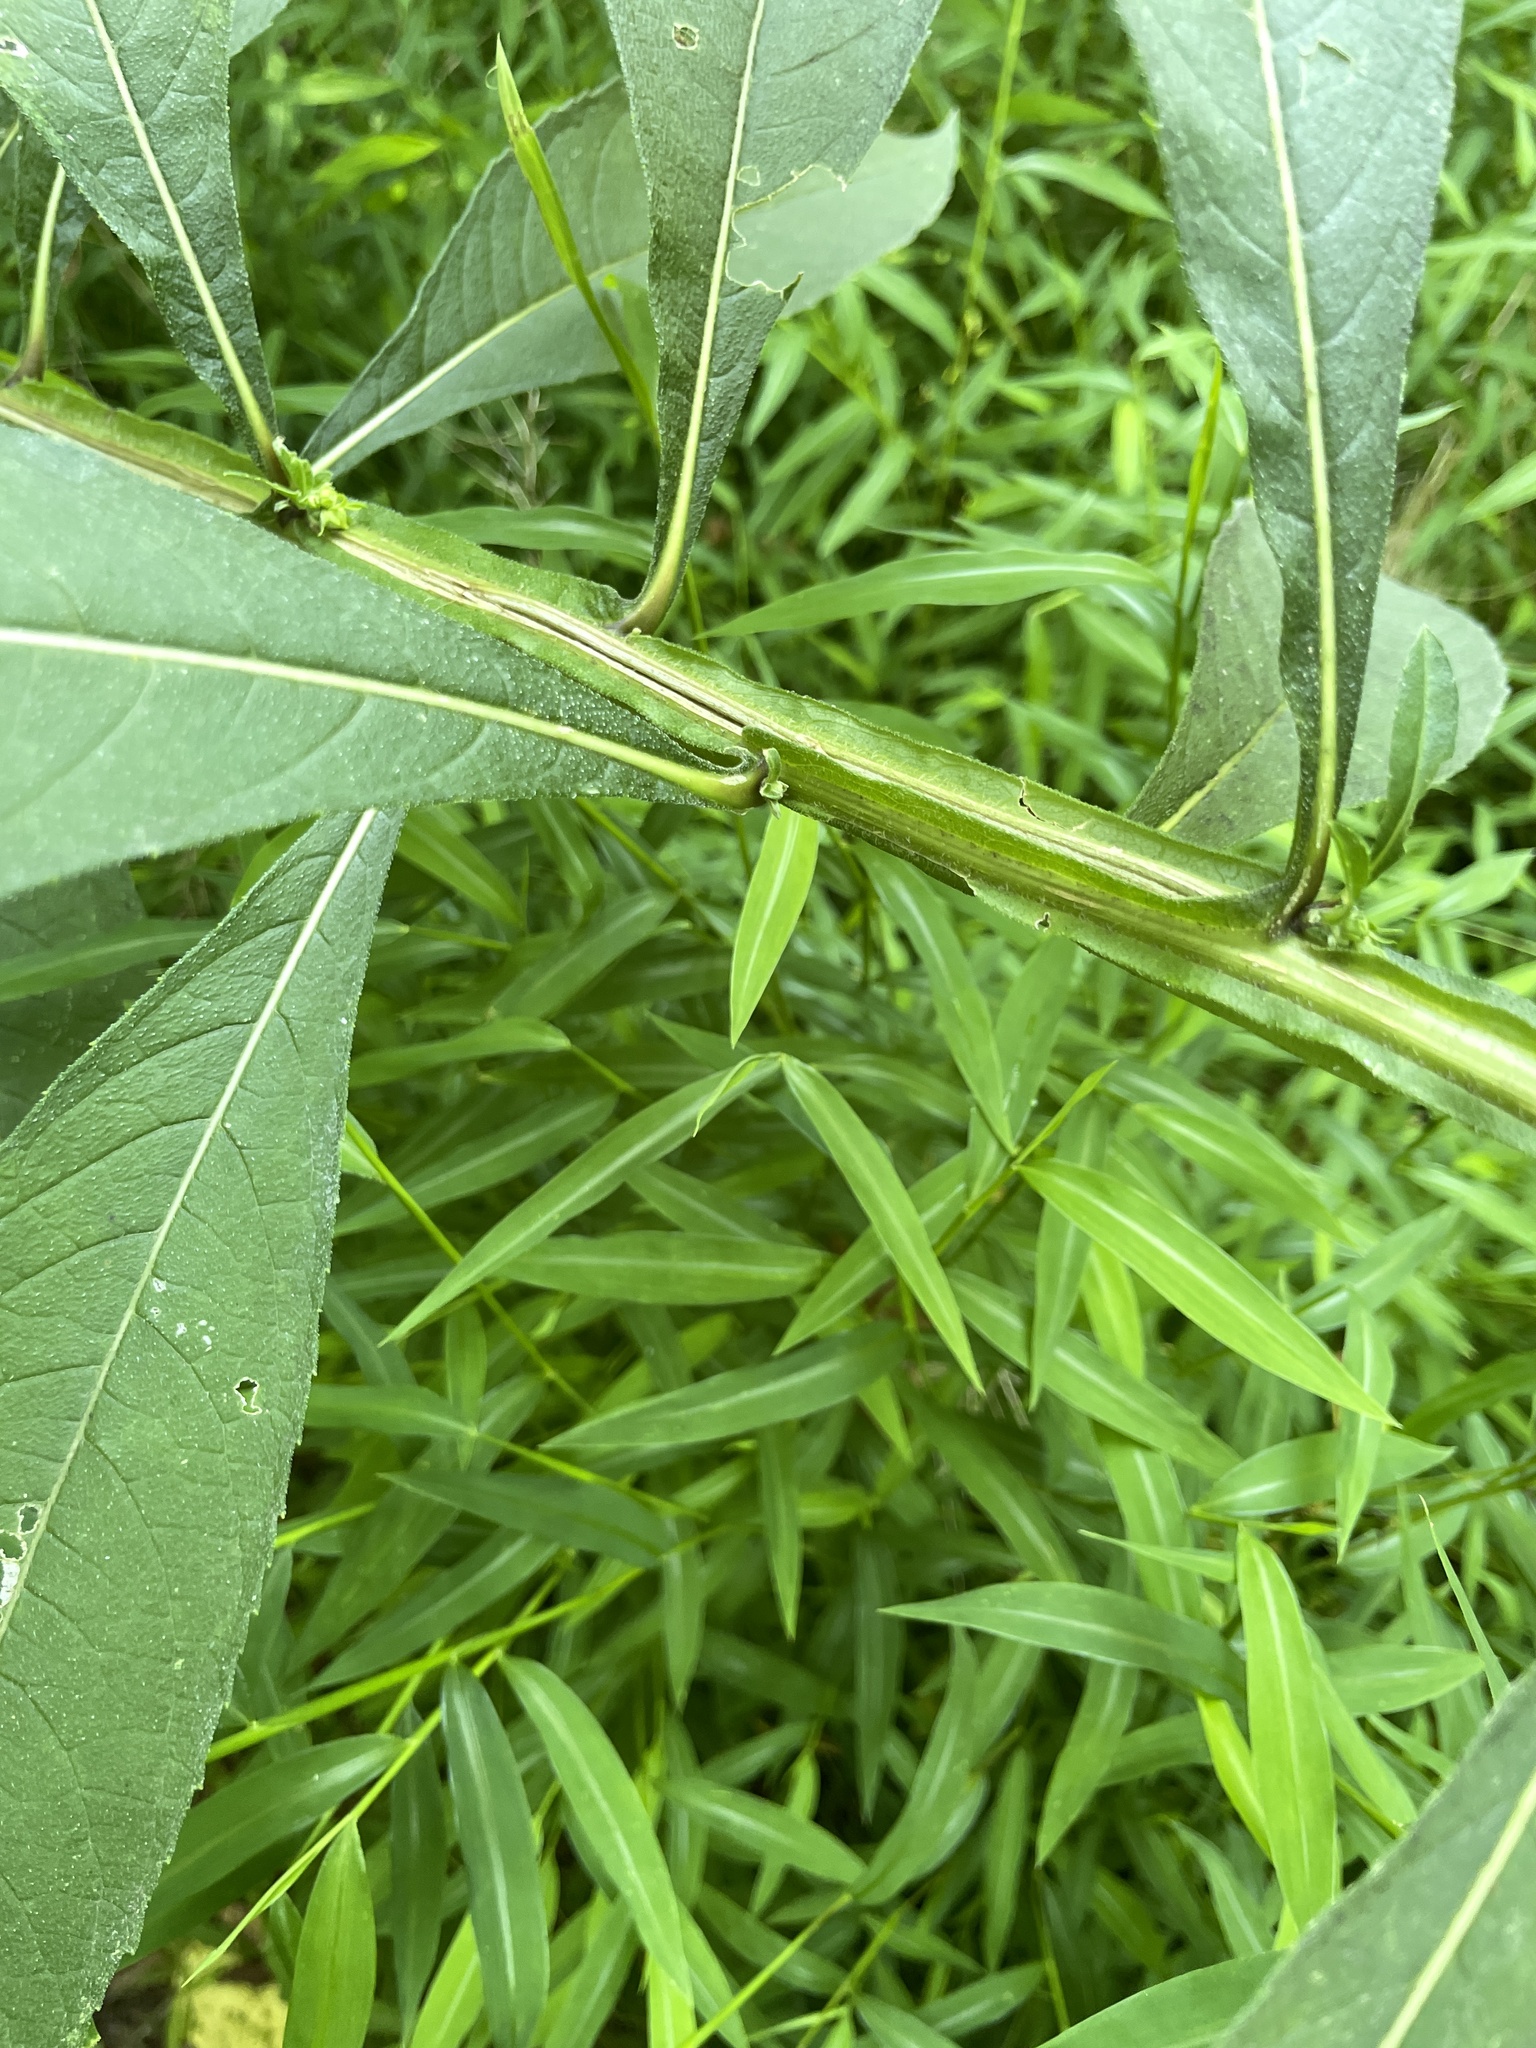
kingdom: Plantae
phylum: Tracheophyta
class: Magnoliopsida
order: Asterales
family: Asteraceae
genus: Verbesina
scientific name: Verbesina alternifolia
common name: Wingstem
